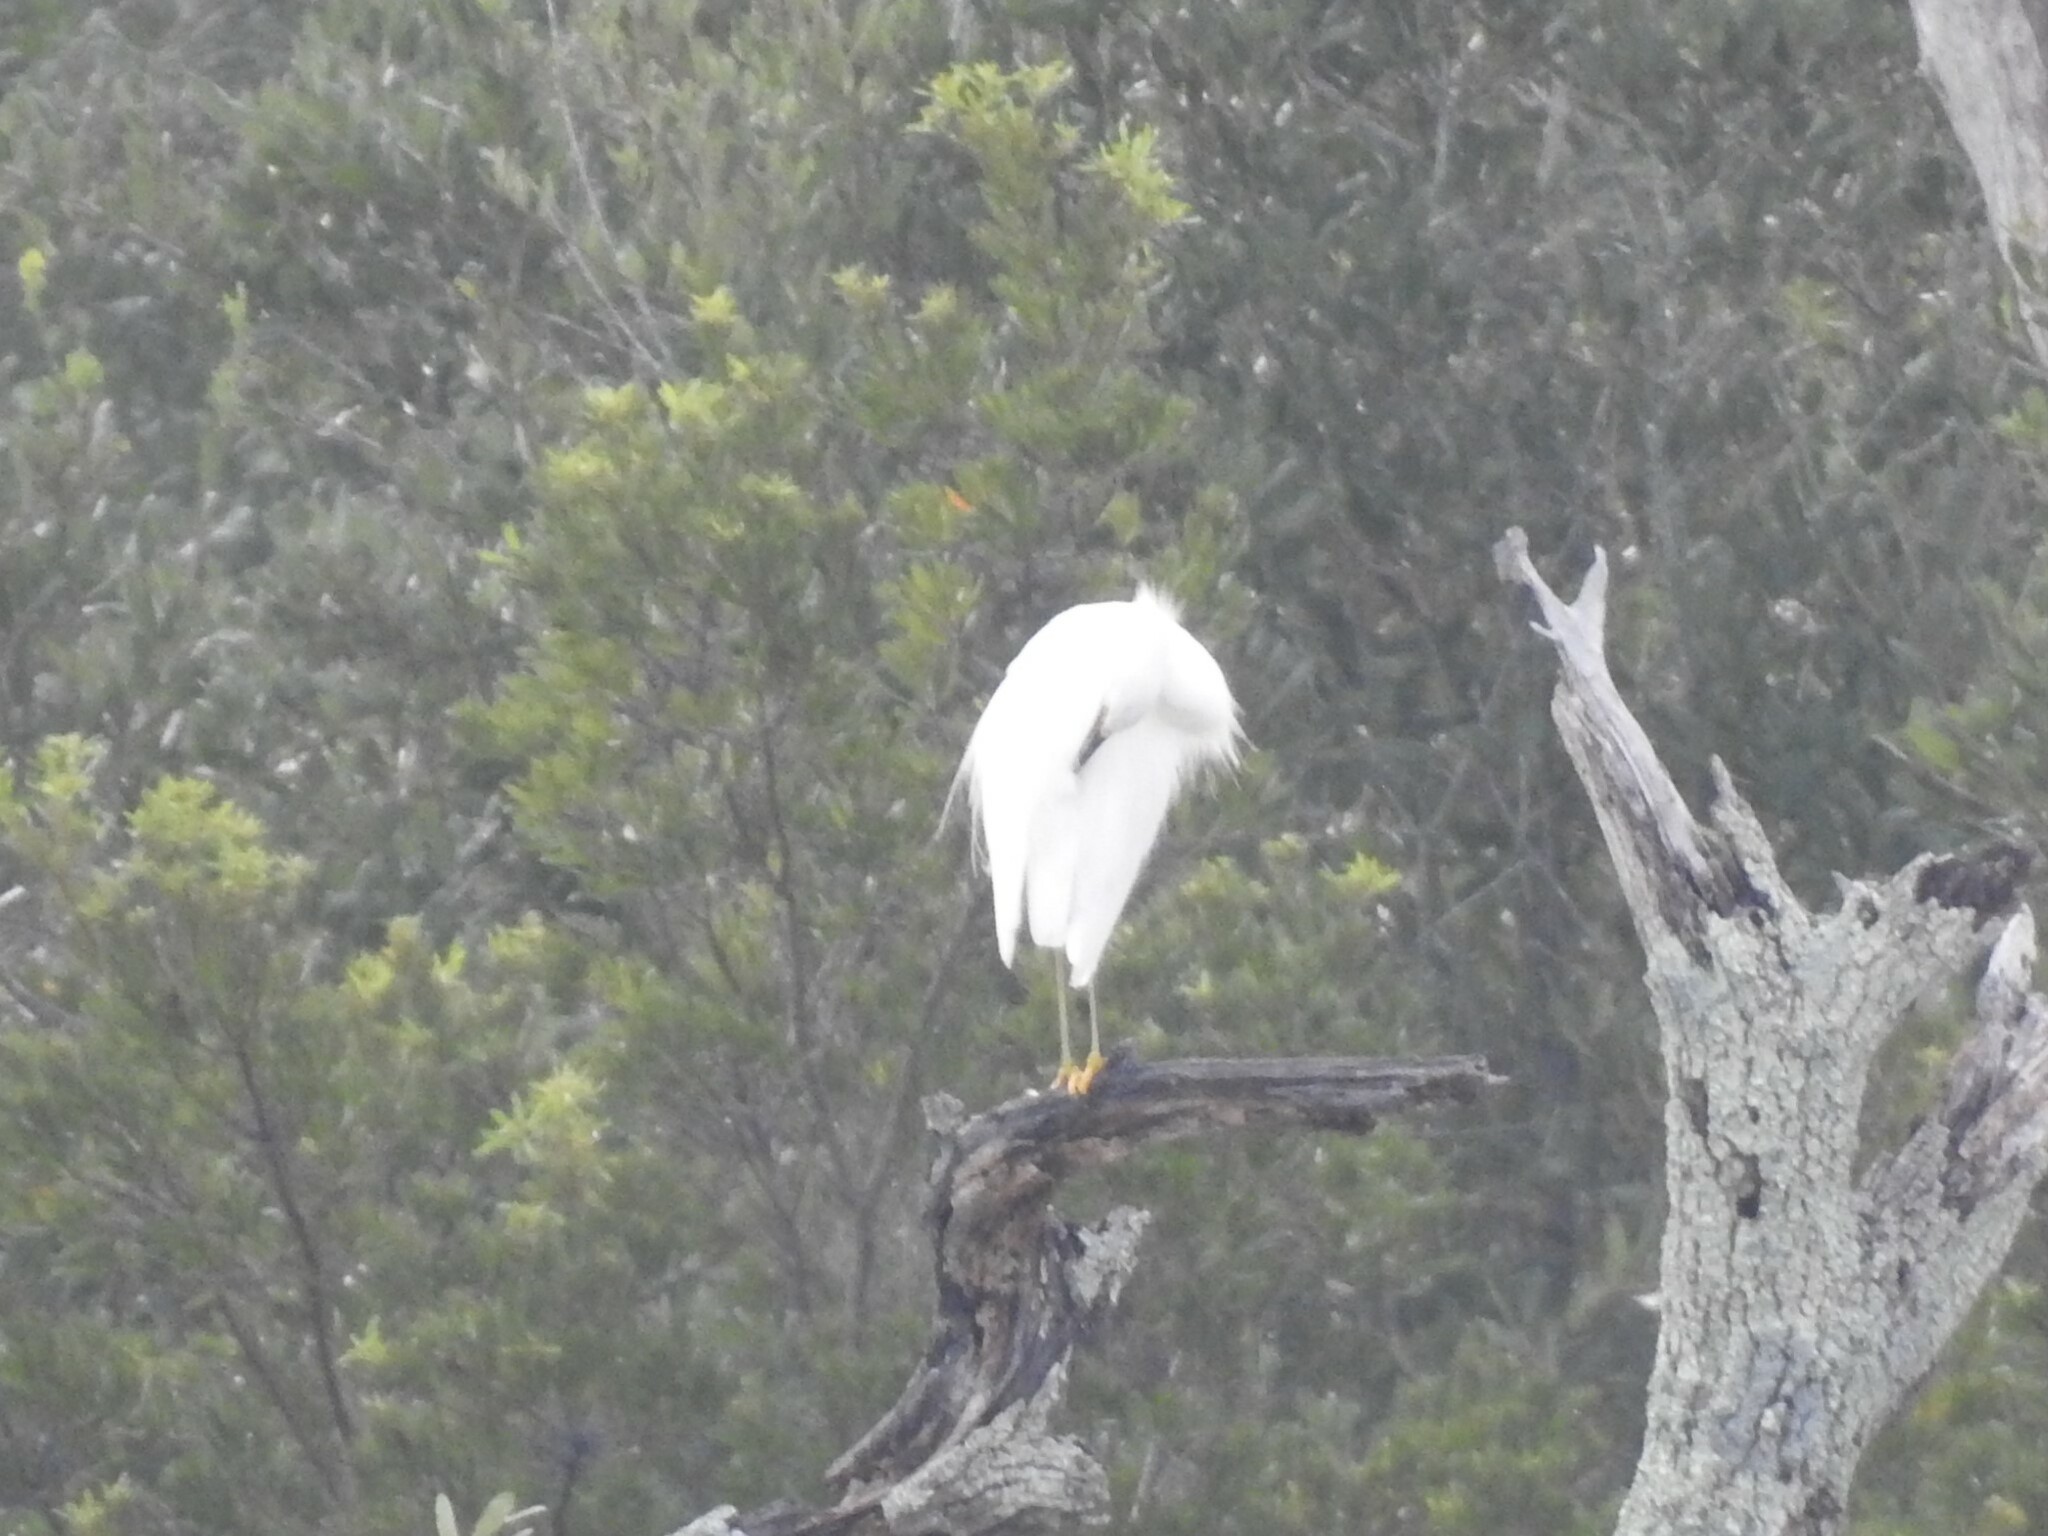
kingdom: Animalia
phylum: Chordata
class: Aves
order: Pelecaniformes
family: Ardeidae
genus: Egretta
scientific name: Egretta thula
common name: Snowy egret
